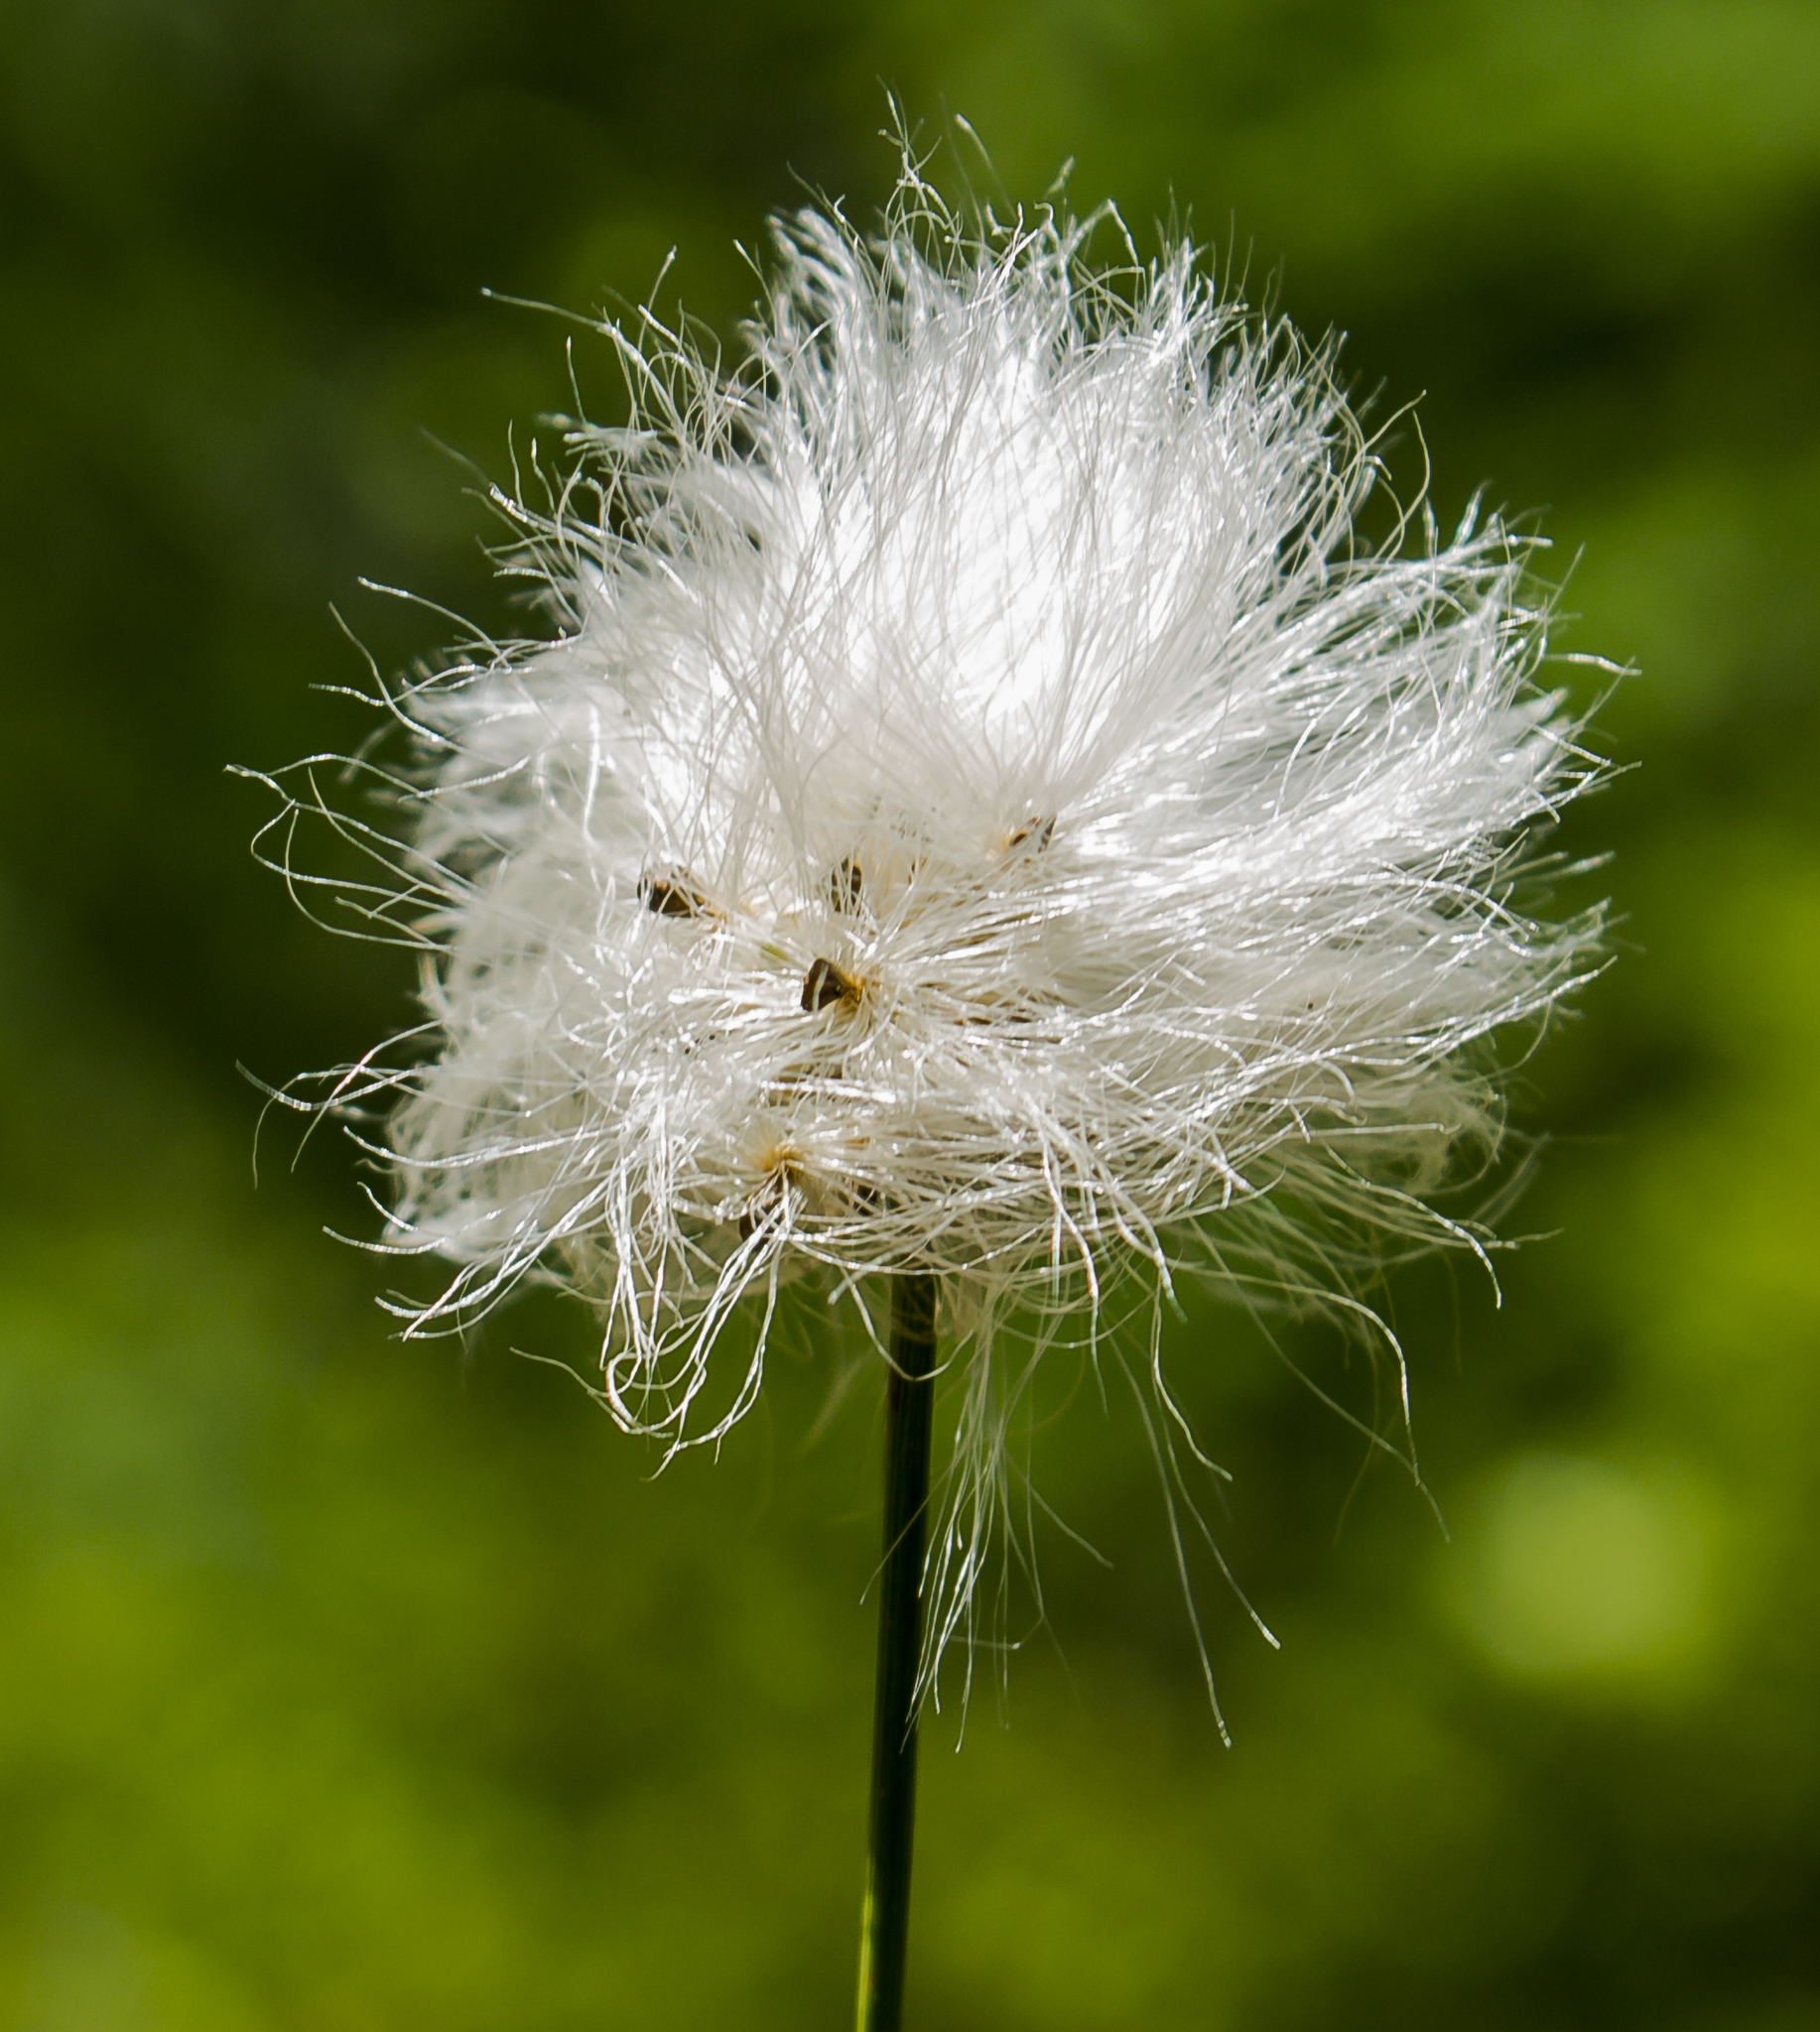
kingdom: Plantae
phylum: Tracheophyta
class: Liliopsida
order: Poales
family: Cyperaceae
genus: Eriophorum
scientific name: Eriophorum vaginatum
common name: Hare's-tail cottongrass
